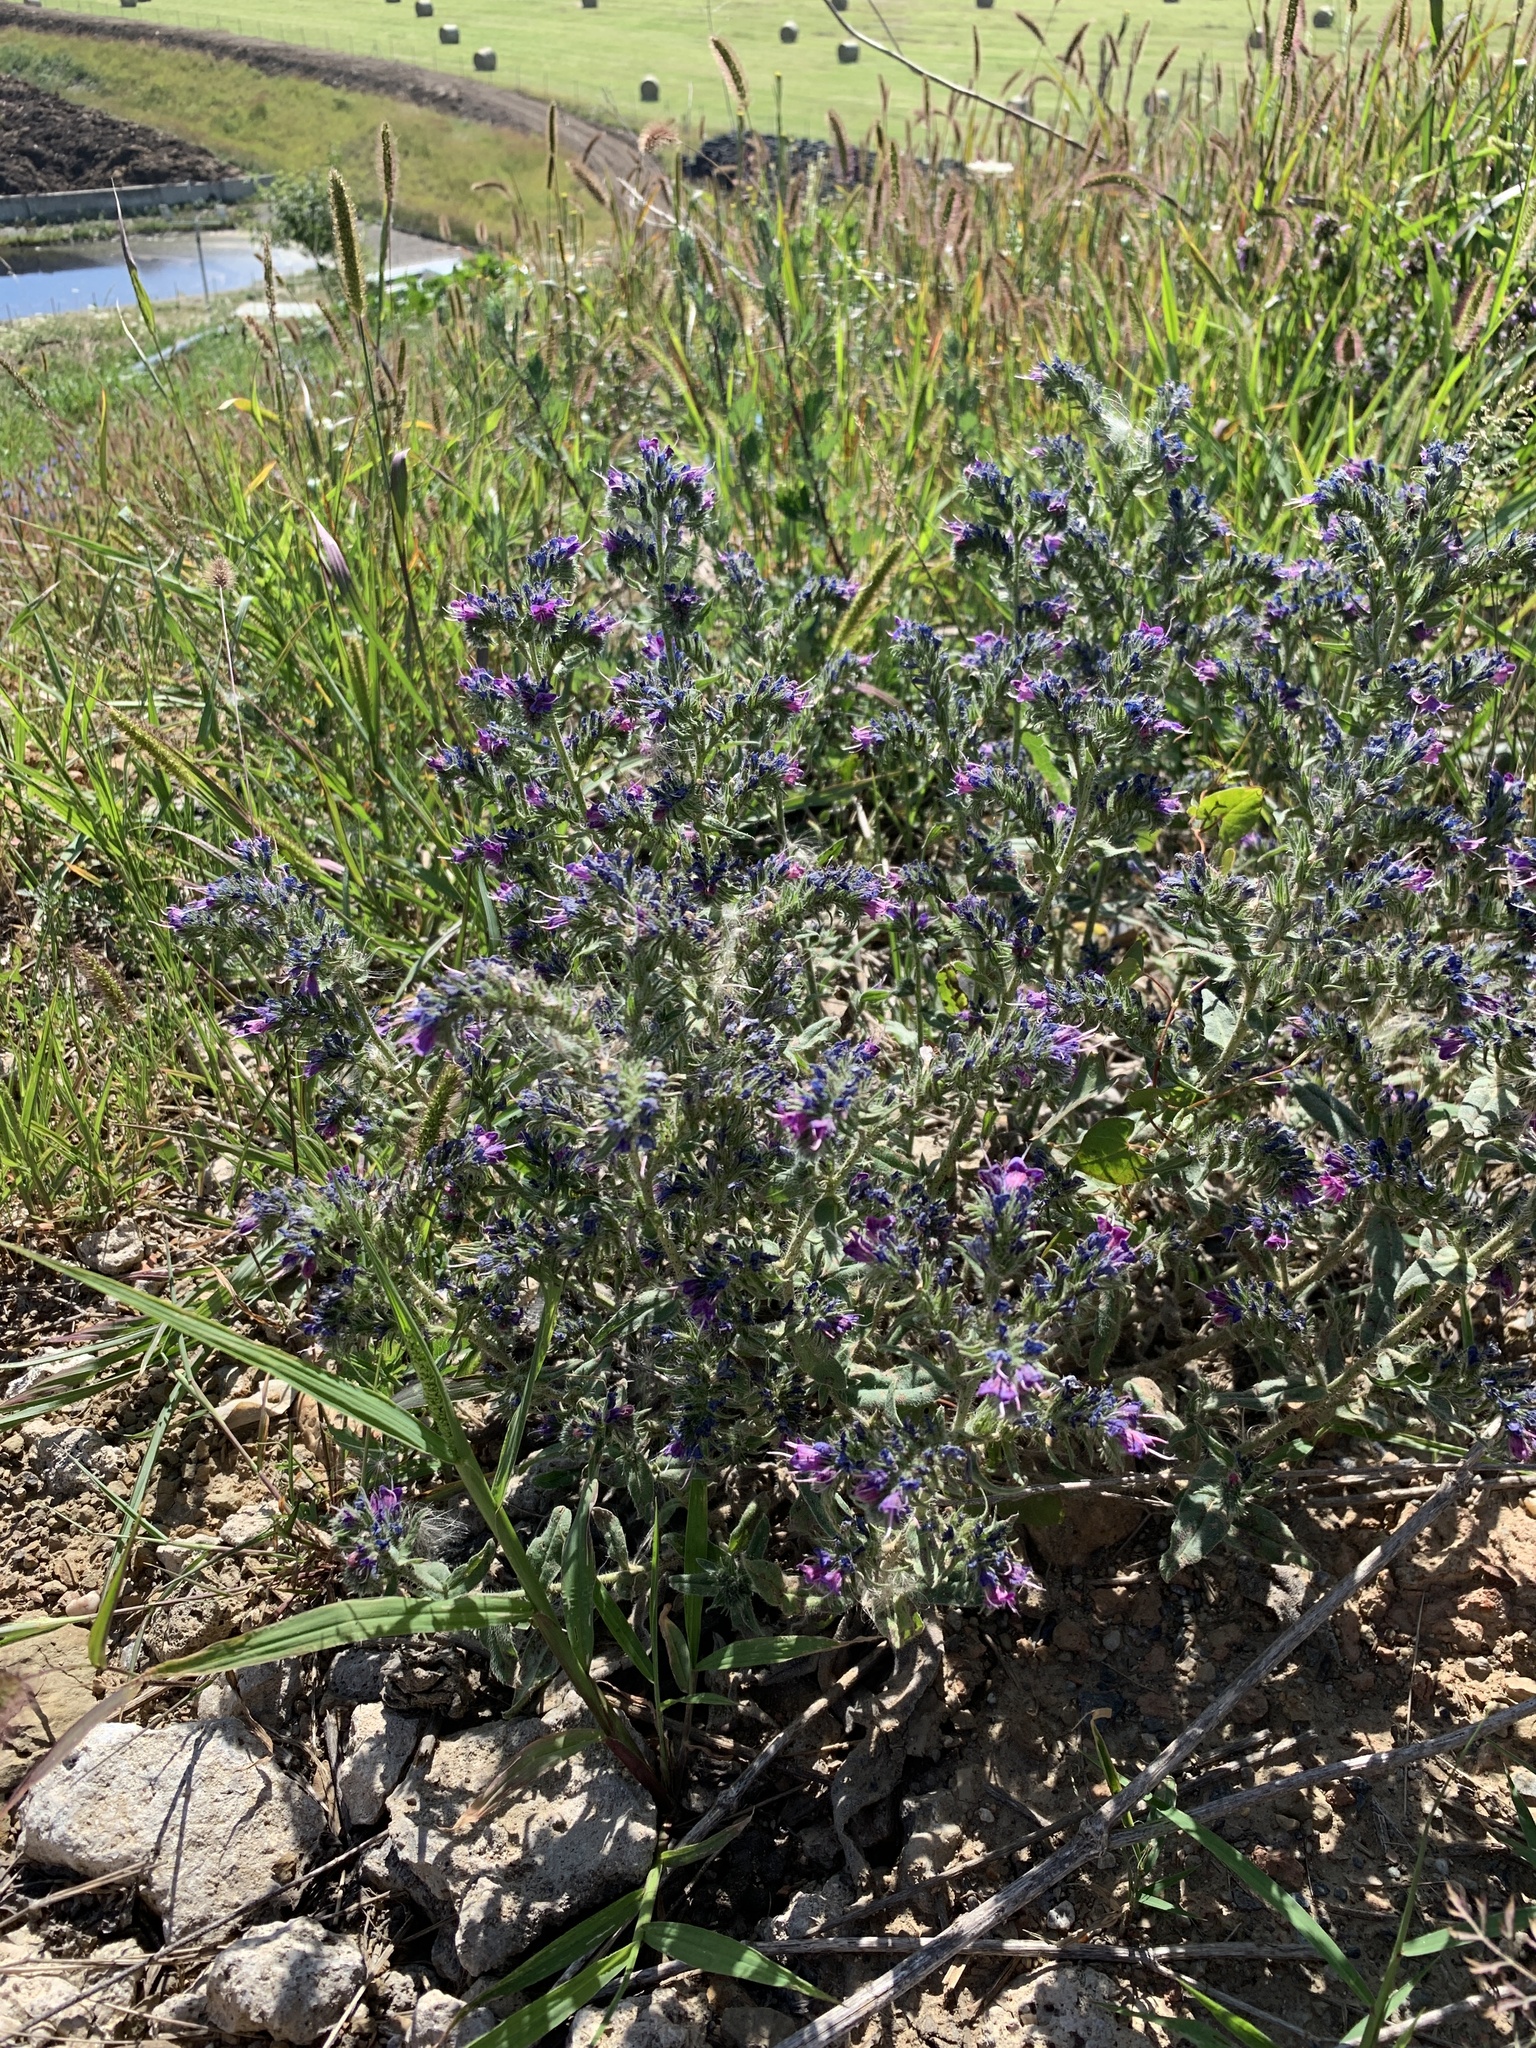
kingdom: Plantae
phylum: Tracheophyta
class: Magnoliopsida
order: Boraginales
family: Boraginaceae
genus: Echium
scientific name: Echium vulgare
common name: Common viper's bugloss
